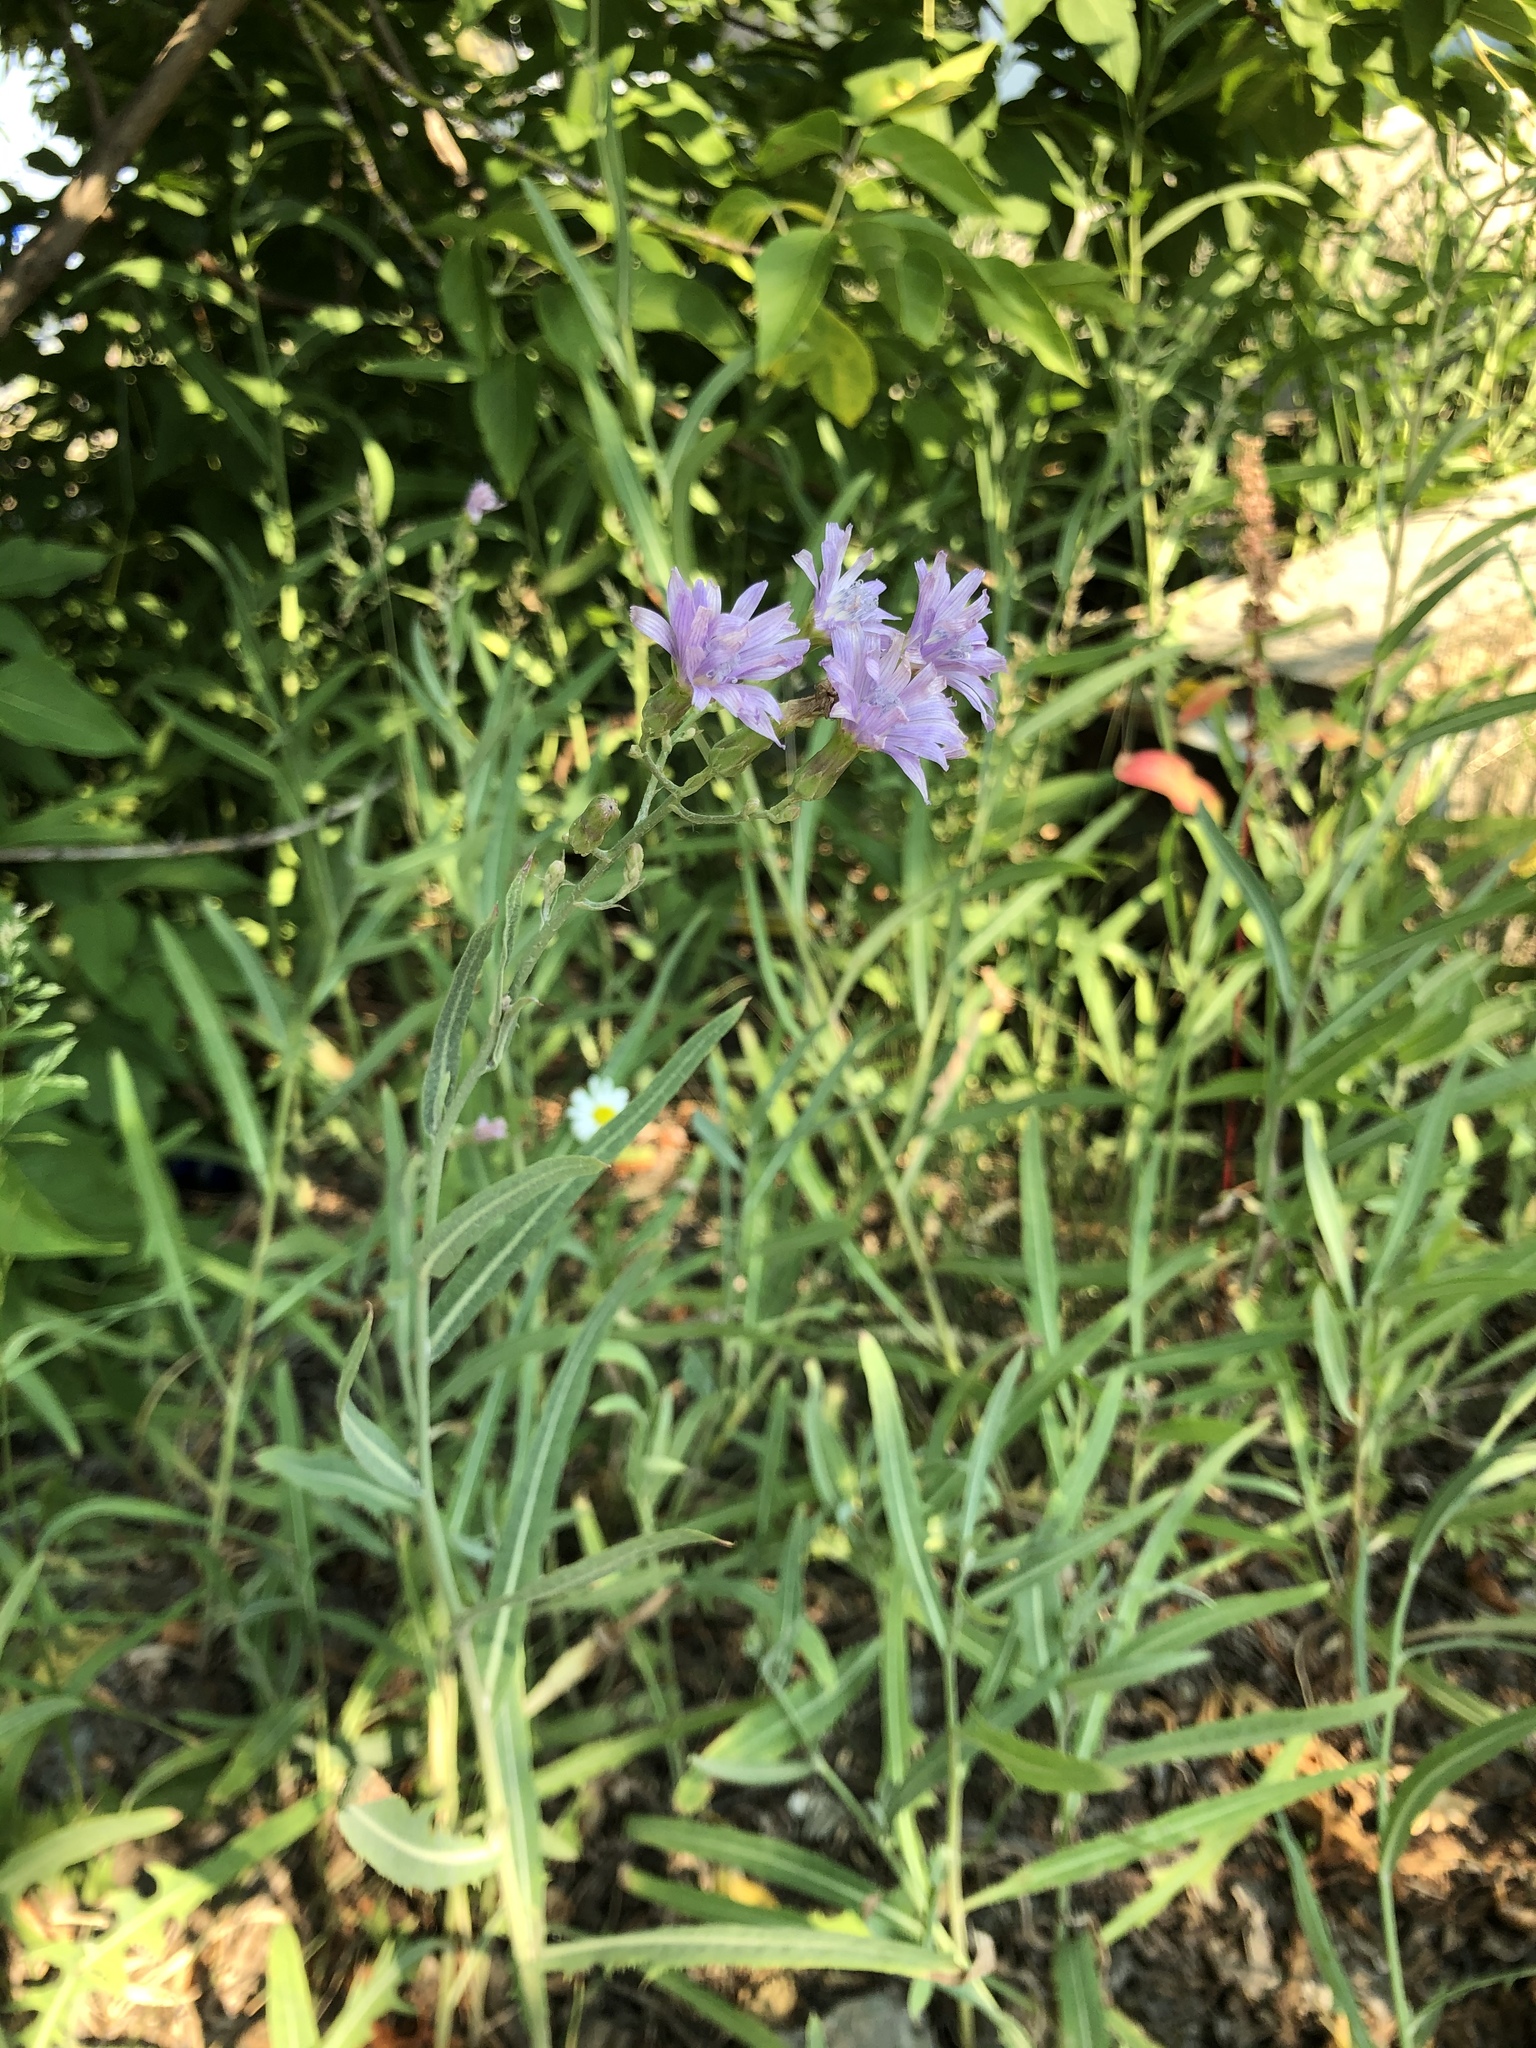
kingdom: Plantae
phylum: Tracheophyta
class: Magnoliopsida
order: Asterales
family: Asteraceae
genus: Lactuca
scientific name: Lactuca tatarica
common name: Blue lettuce
